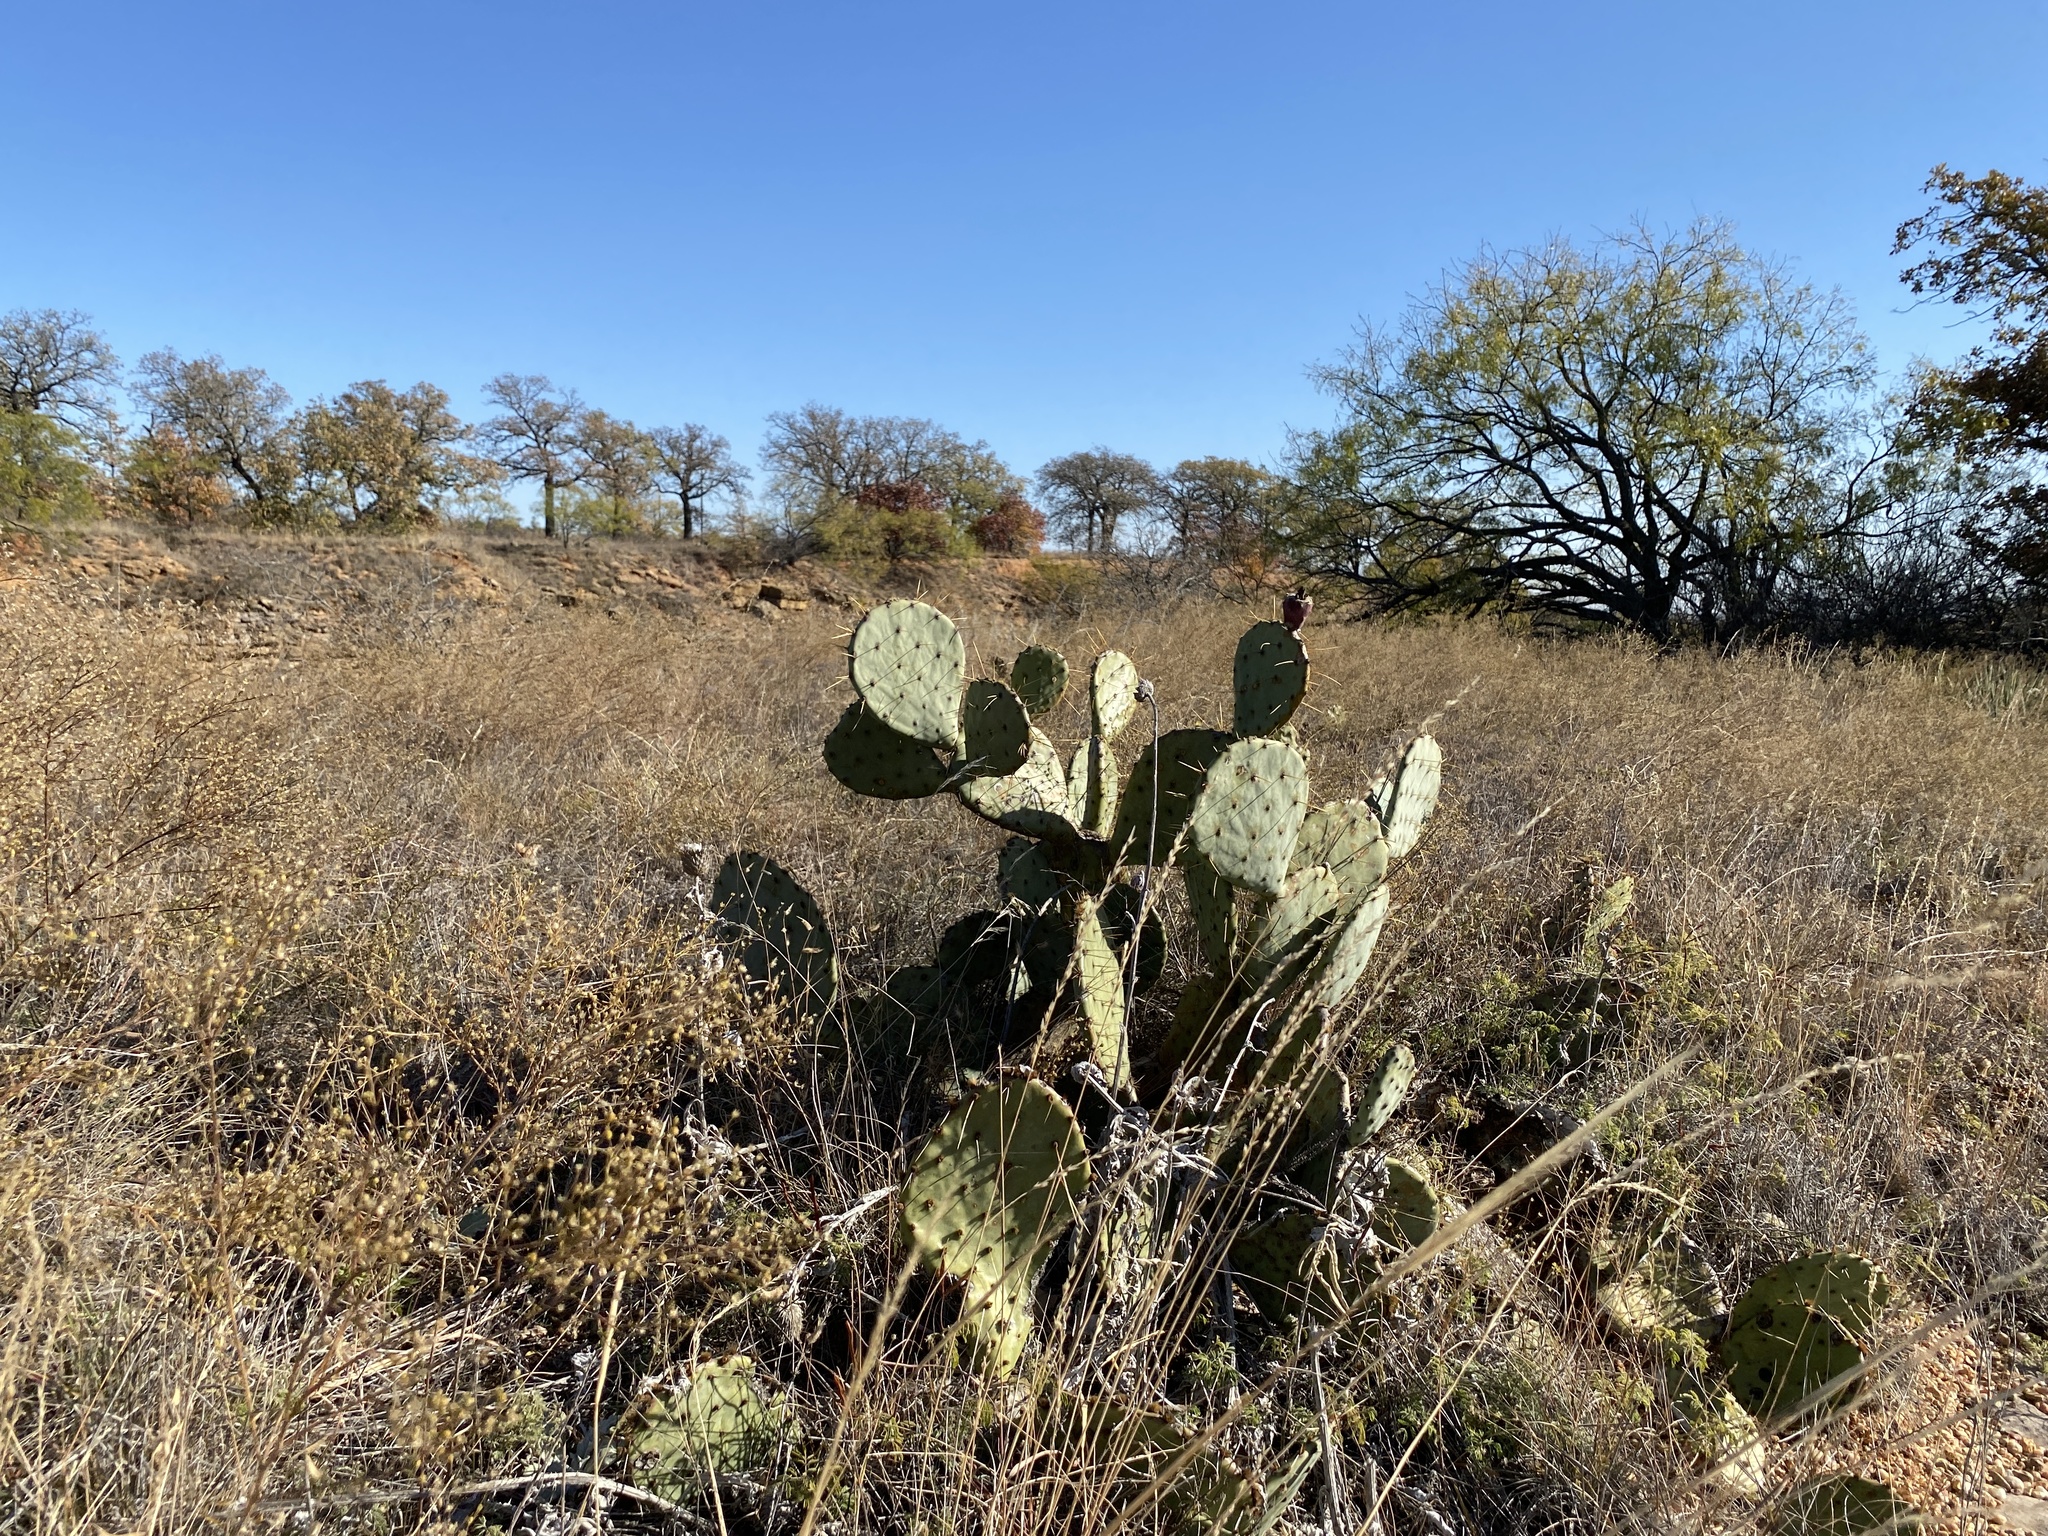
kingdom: Plantae
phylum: Tracheophyta
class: Magnoliopsida
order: Caryophyllales
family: Cactaceae
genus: Opuntia
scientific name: Opuntia engelmannii
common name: Cactus-apple
